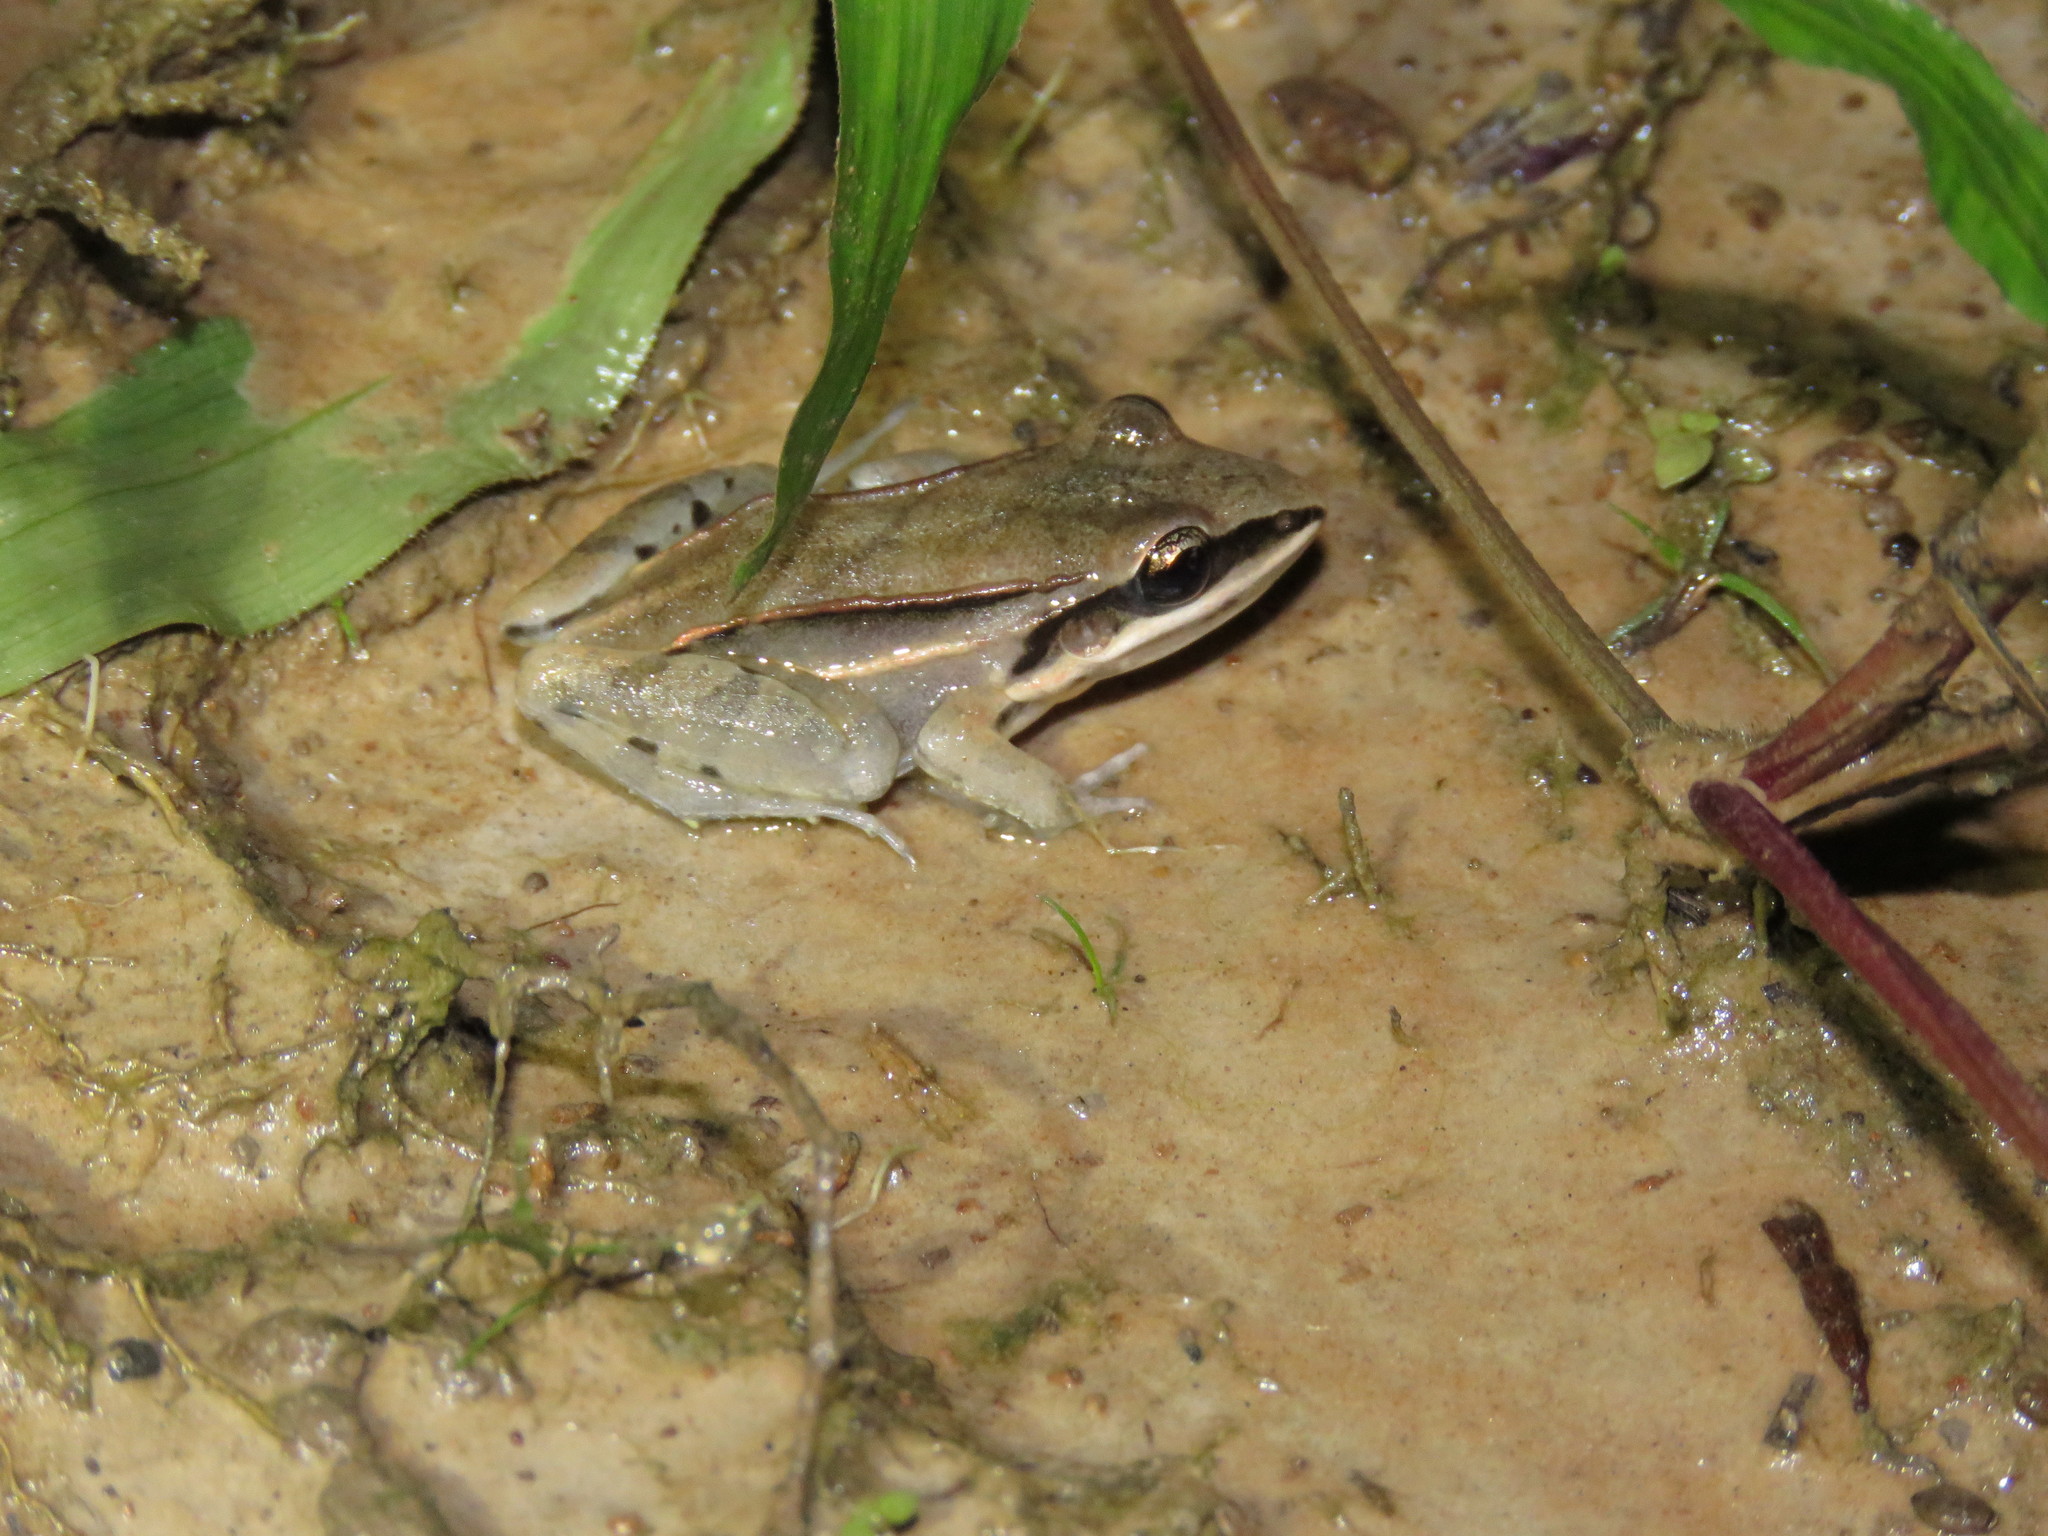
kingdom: Animalia
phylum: Chordata
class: Amphibia
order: Anura
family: Leptodactylidae
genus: Leptodactylus
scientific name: Leptodactylus elenae
